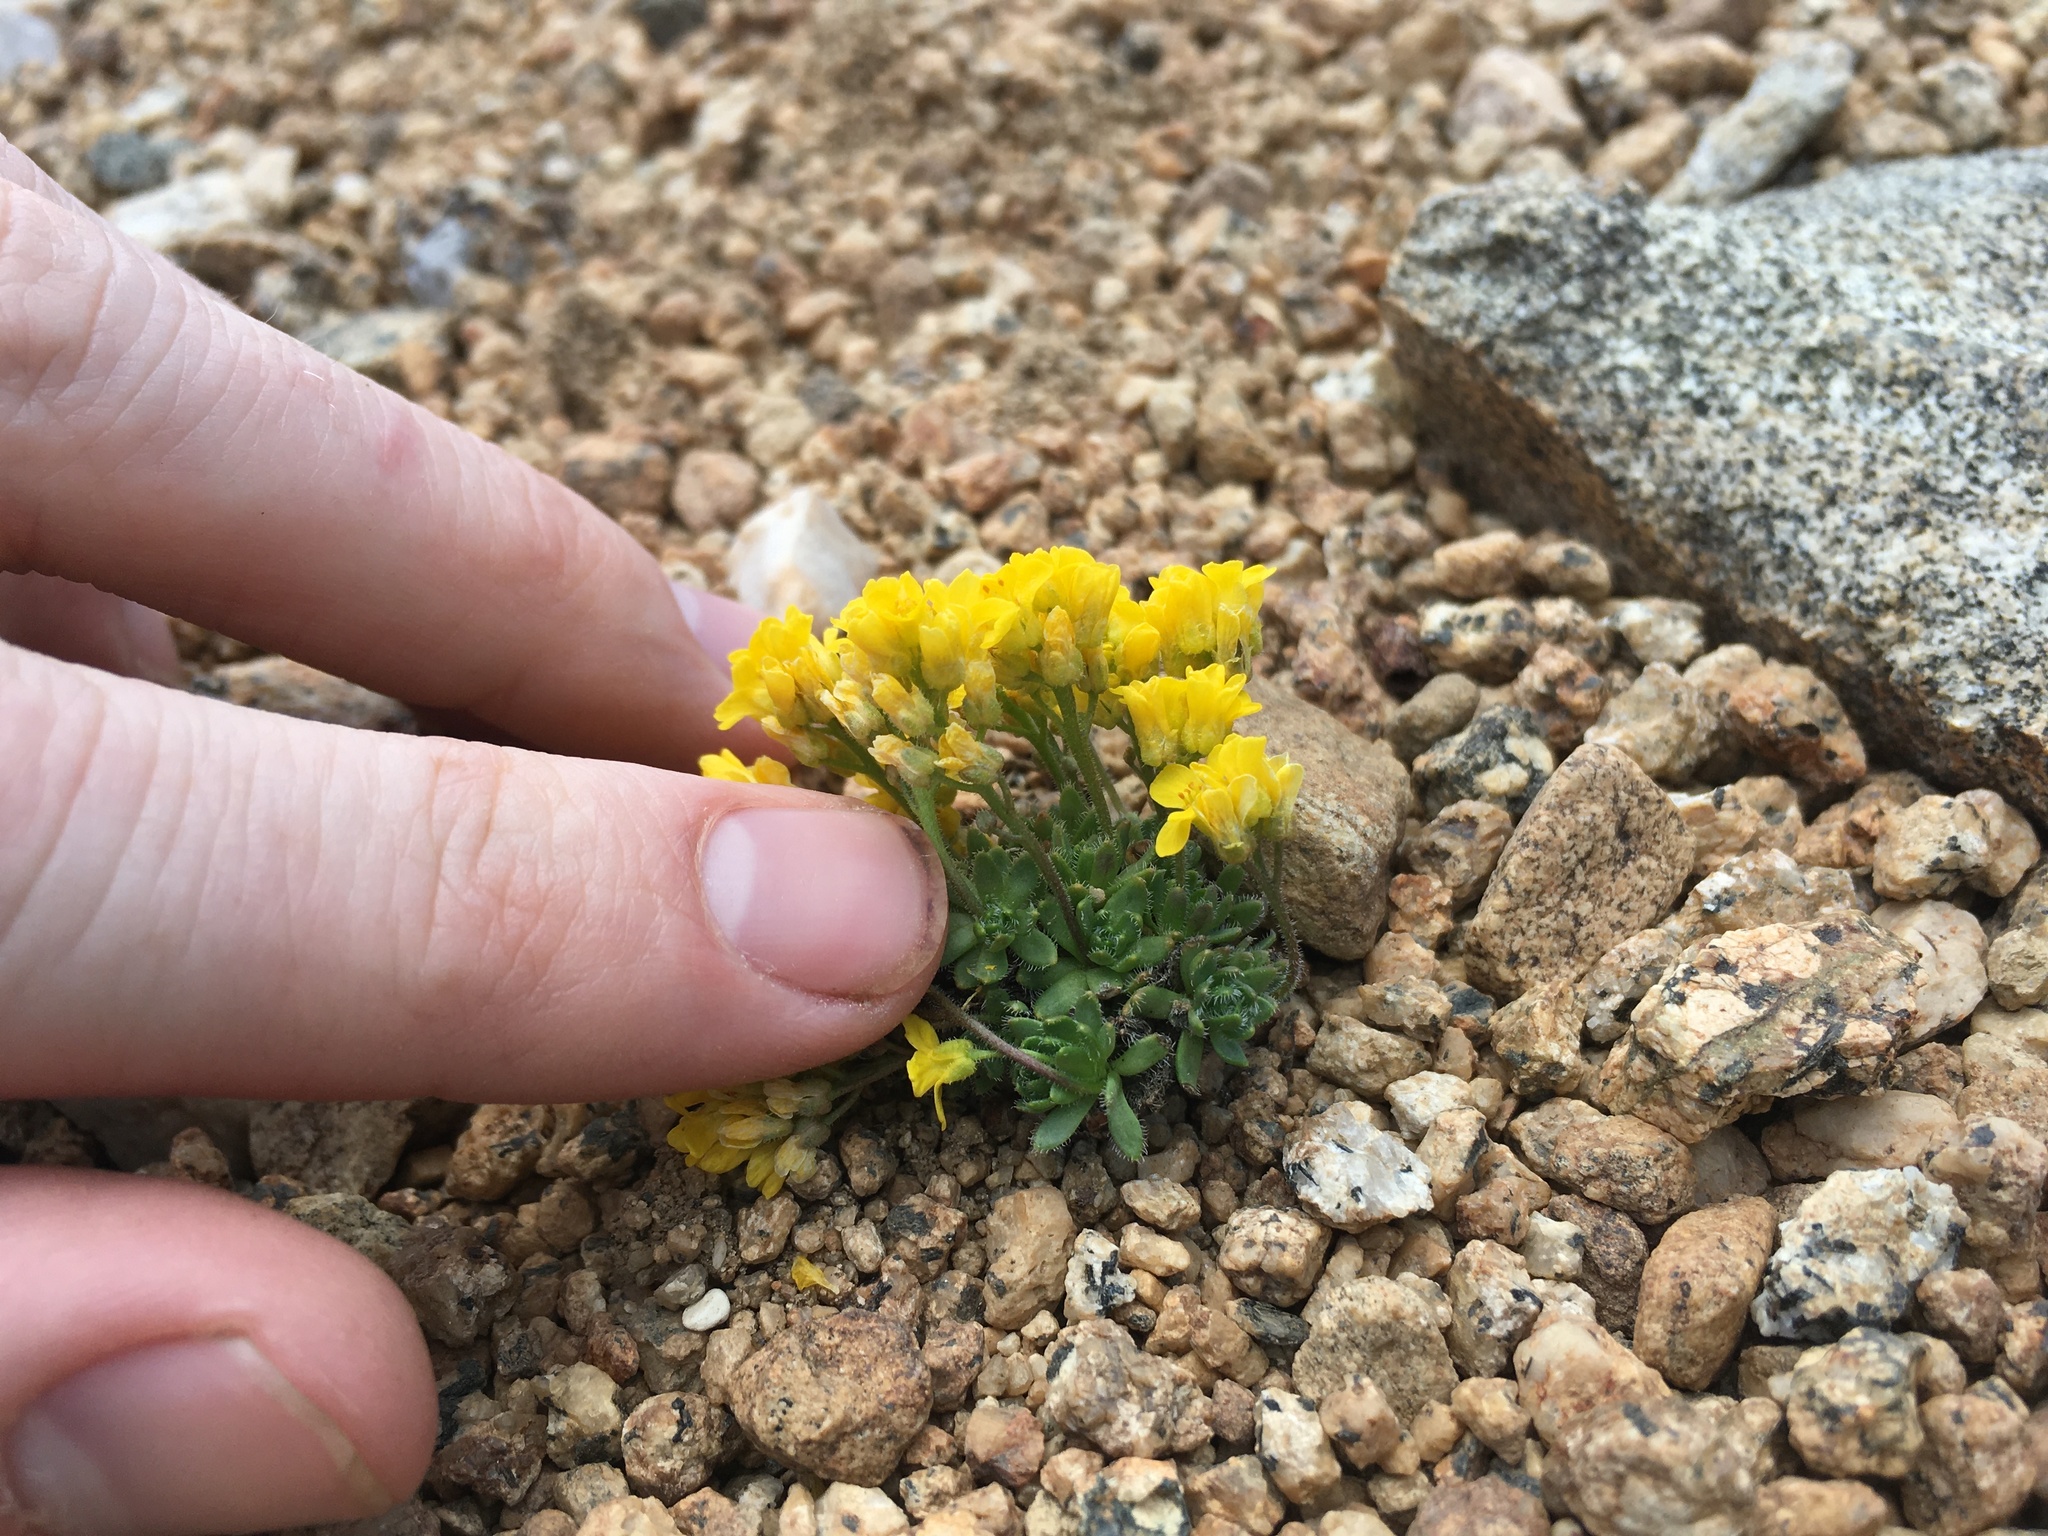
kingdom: Plantae
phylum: Tracheophyta
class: Magnoliopsida
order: Brassicales
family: Brassicaceae
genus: Draba
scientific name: Draba lemmonii
